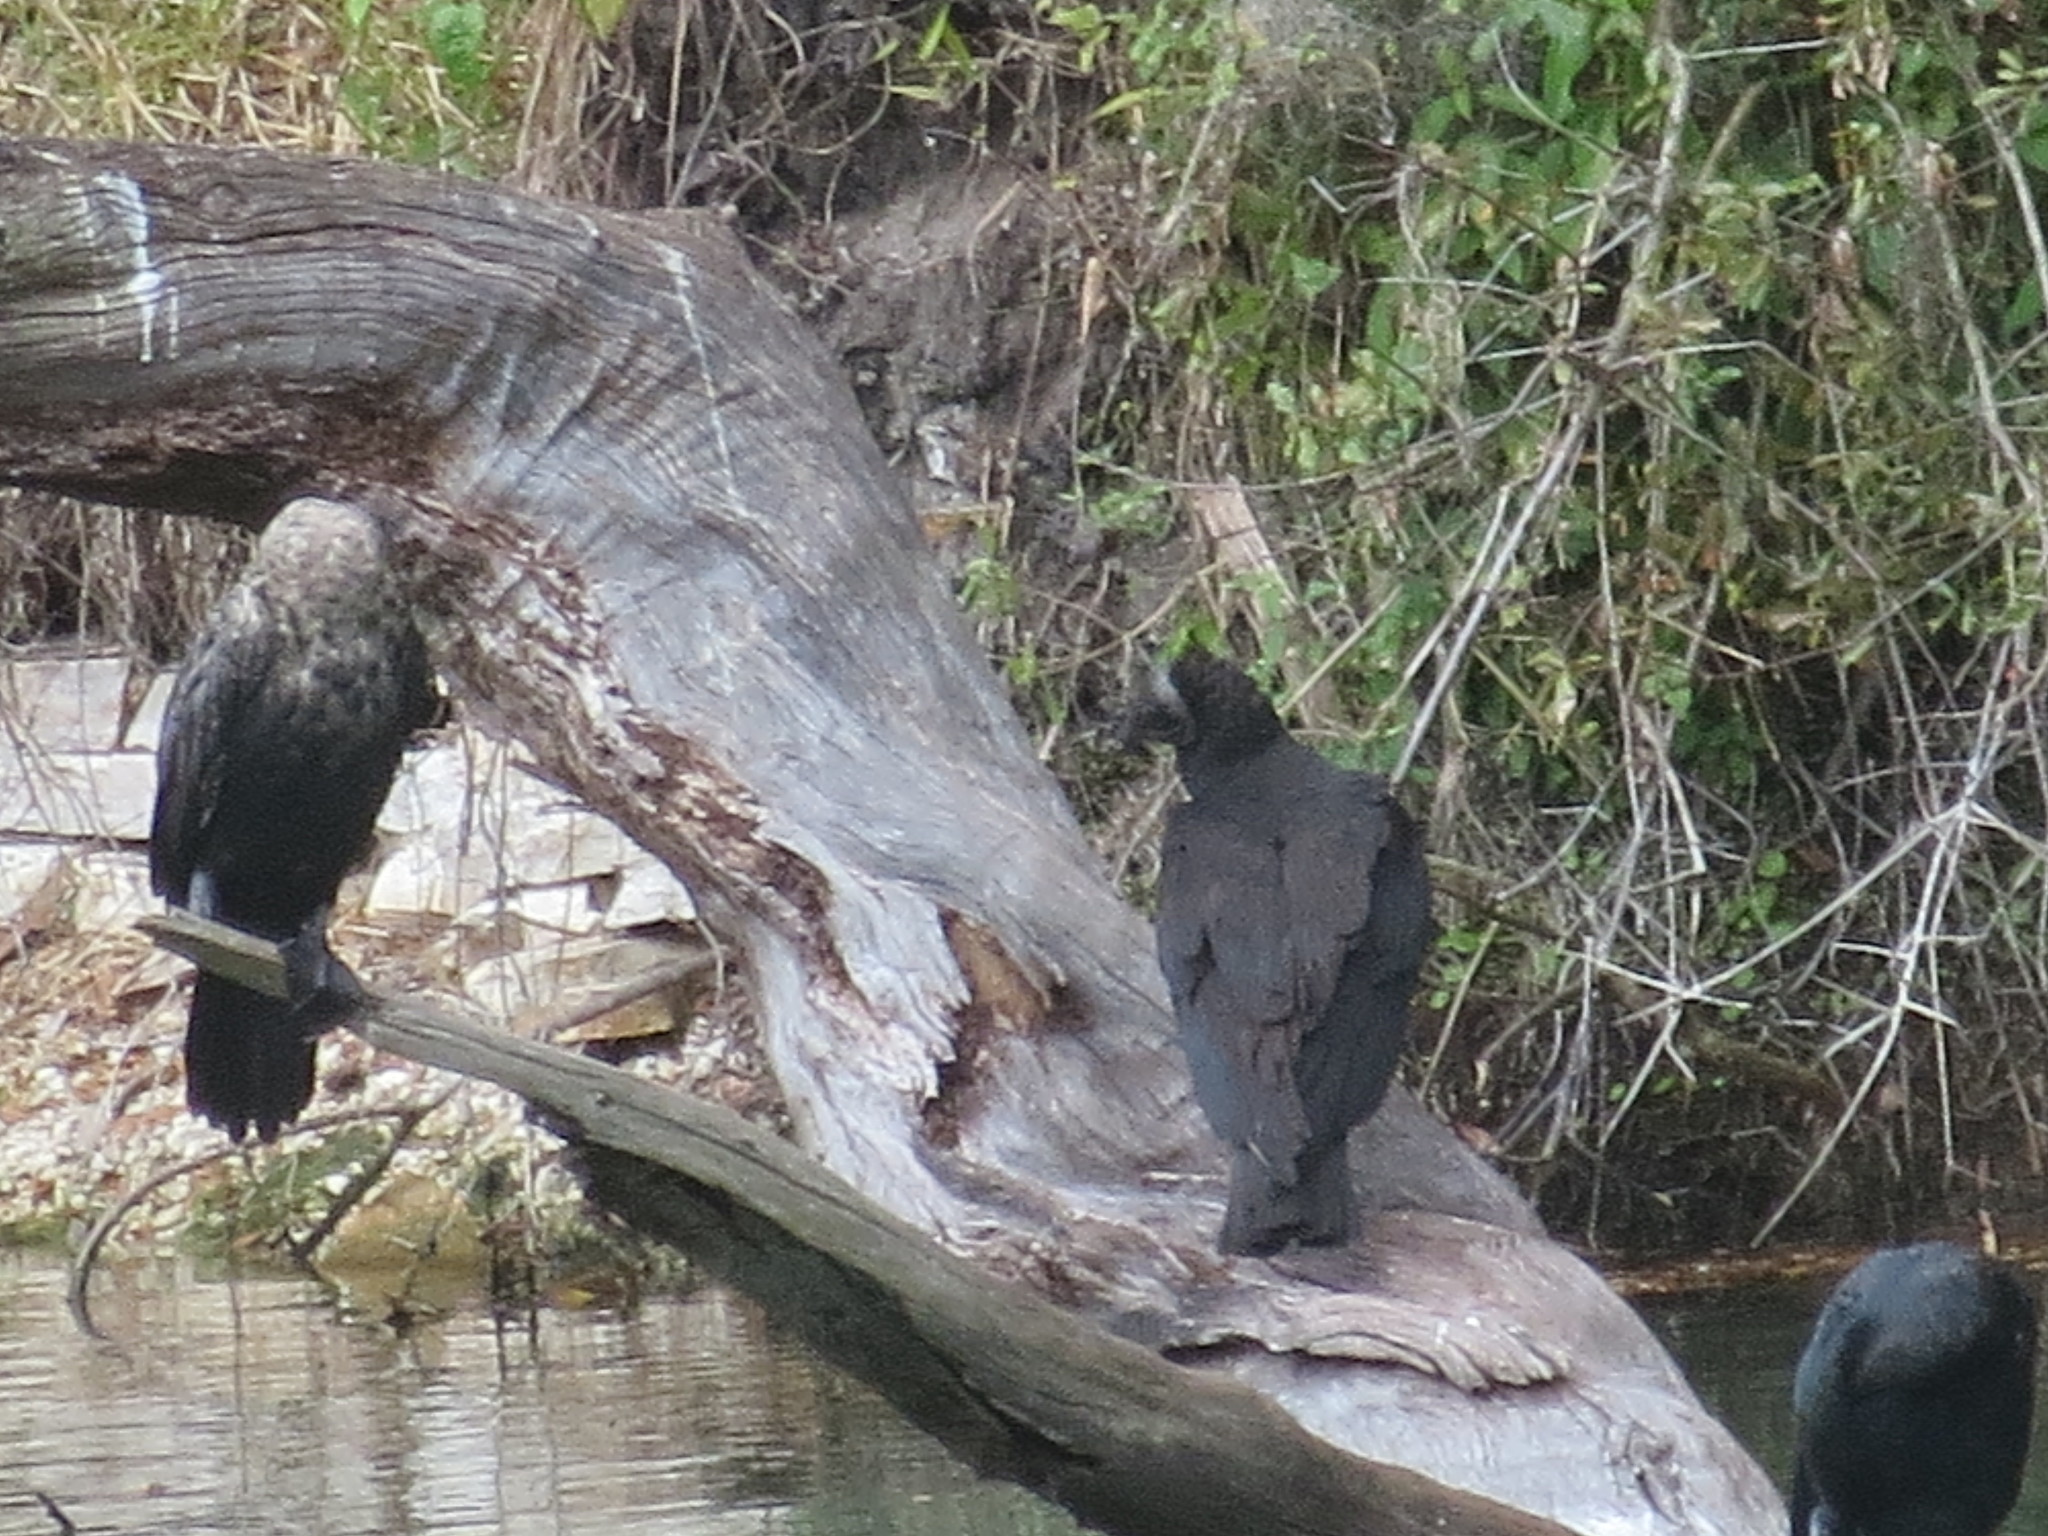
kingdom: Animalia
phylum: Chordata
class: Aves
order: Accipitriformes
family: Cathartidae
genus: Coragyps
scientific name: Coragyps atratus
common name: Black vulture
